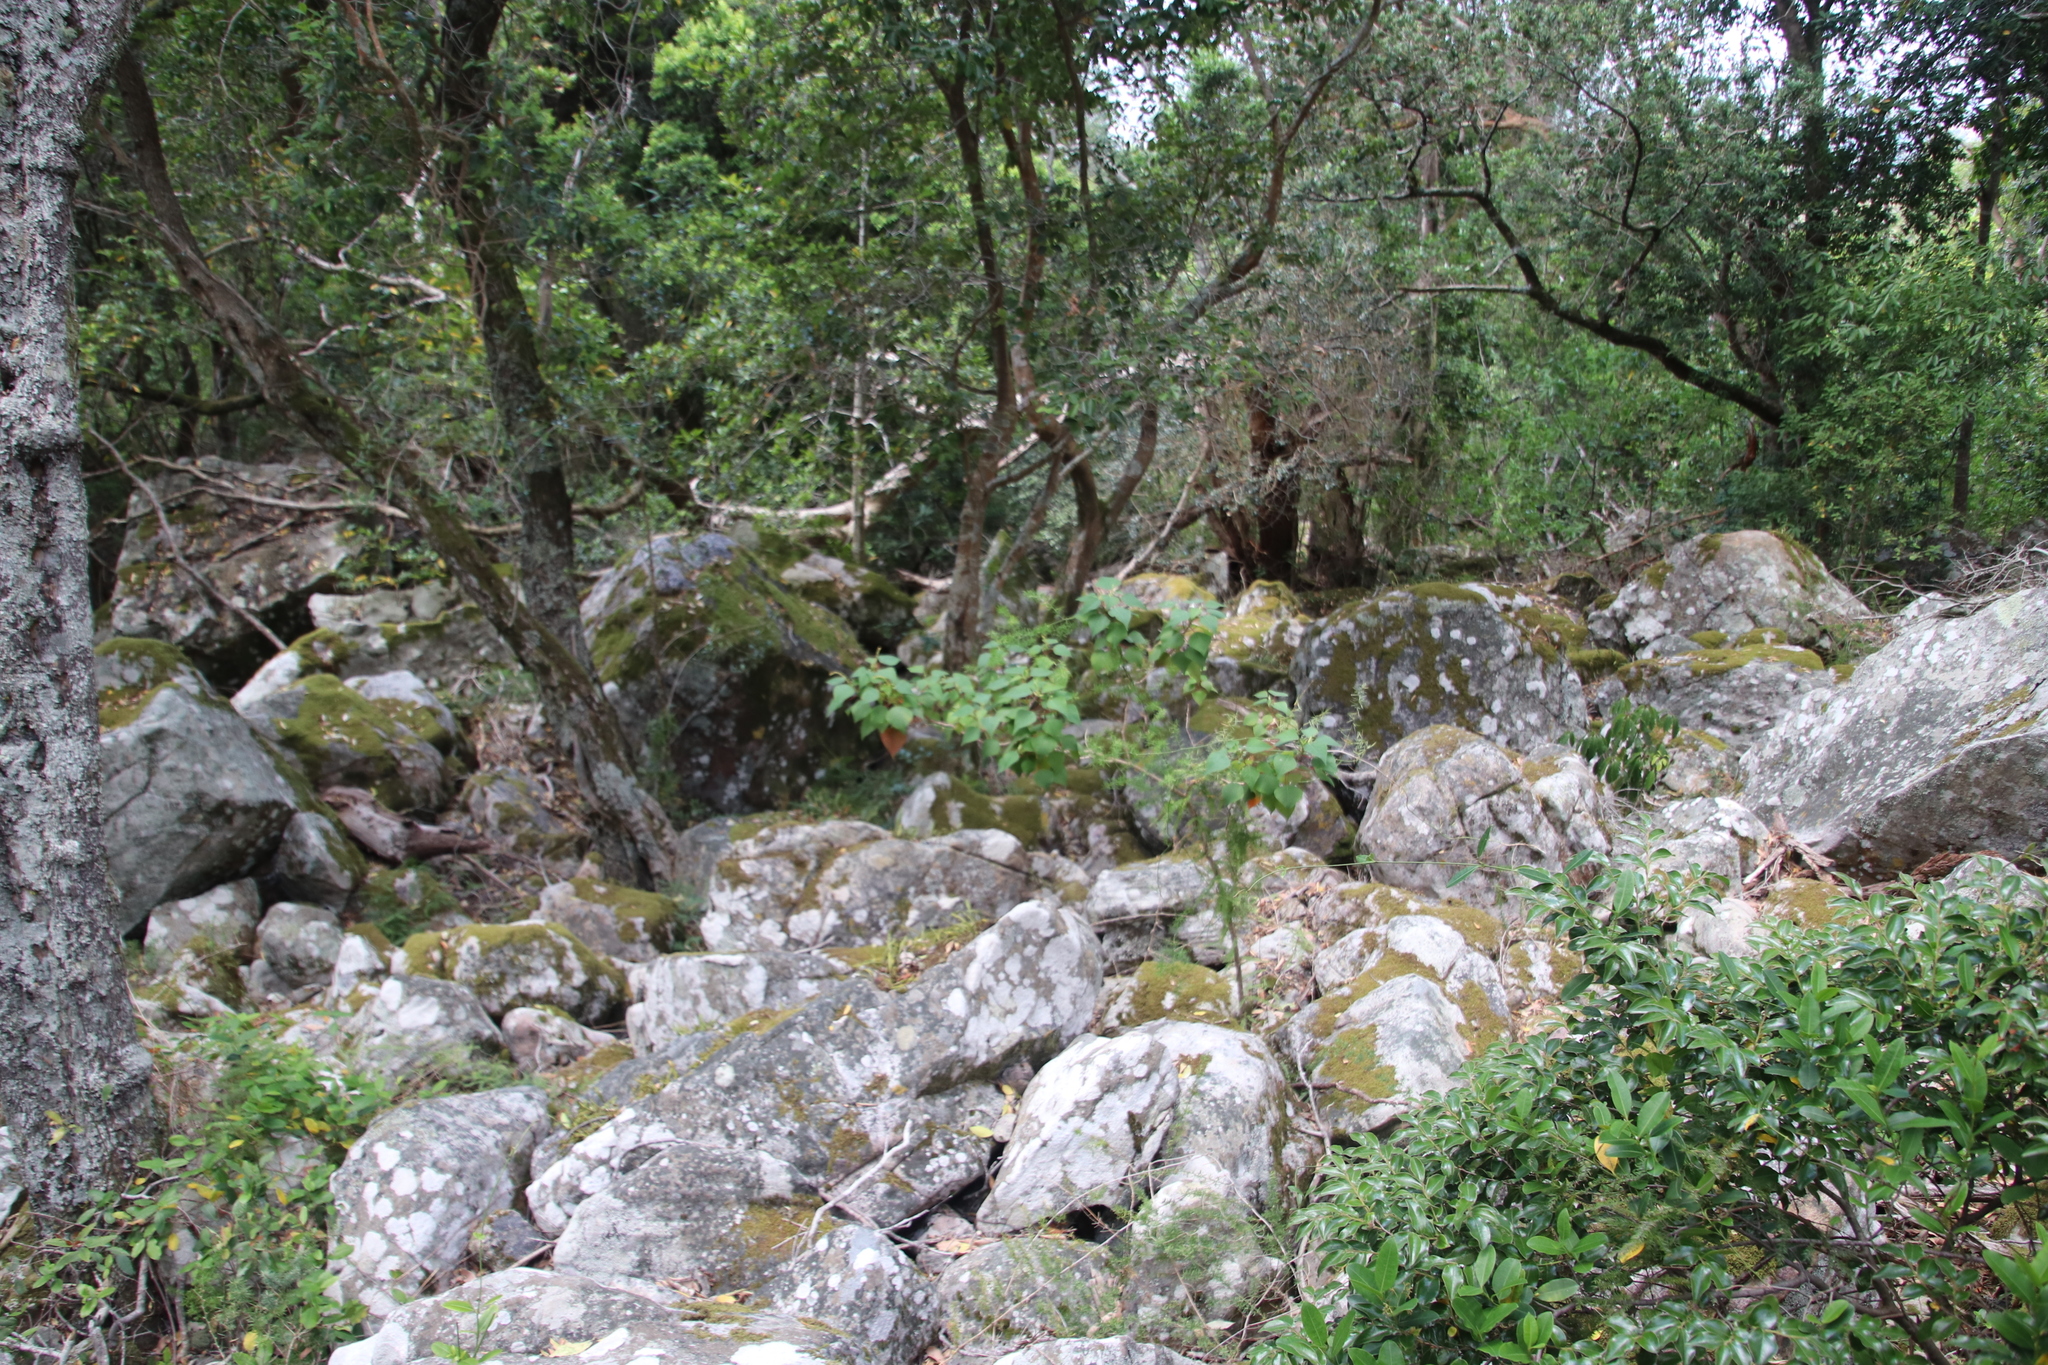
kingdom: Plantae
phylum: Tracheophyta
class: Magnoliopsida
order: Malpighiales
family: Euphorbiaceae
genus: Homalanthus
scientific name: Homalanthus populifolius
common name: Queensland poplar
